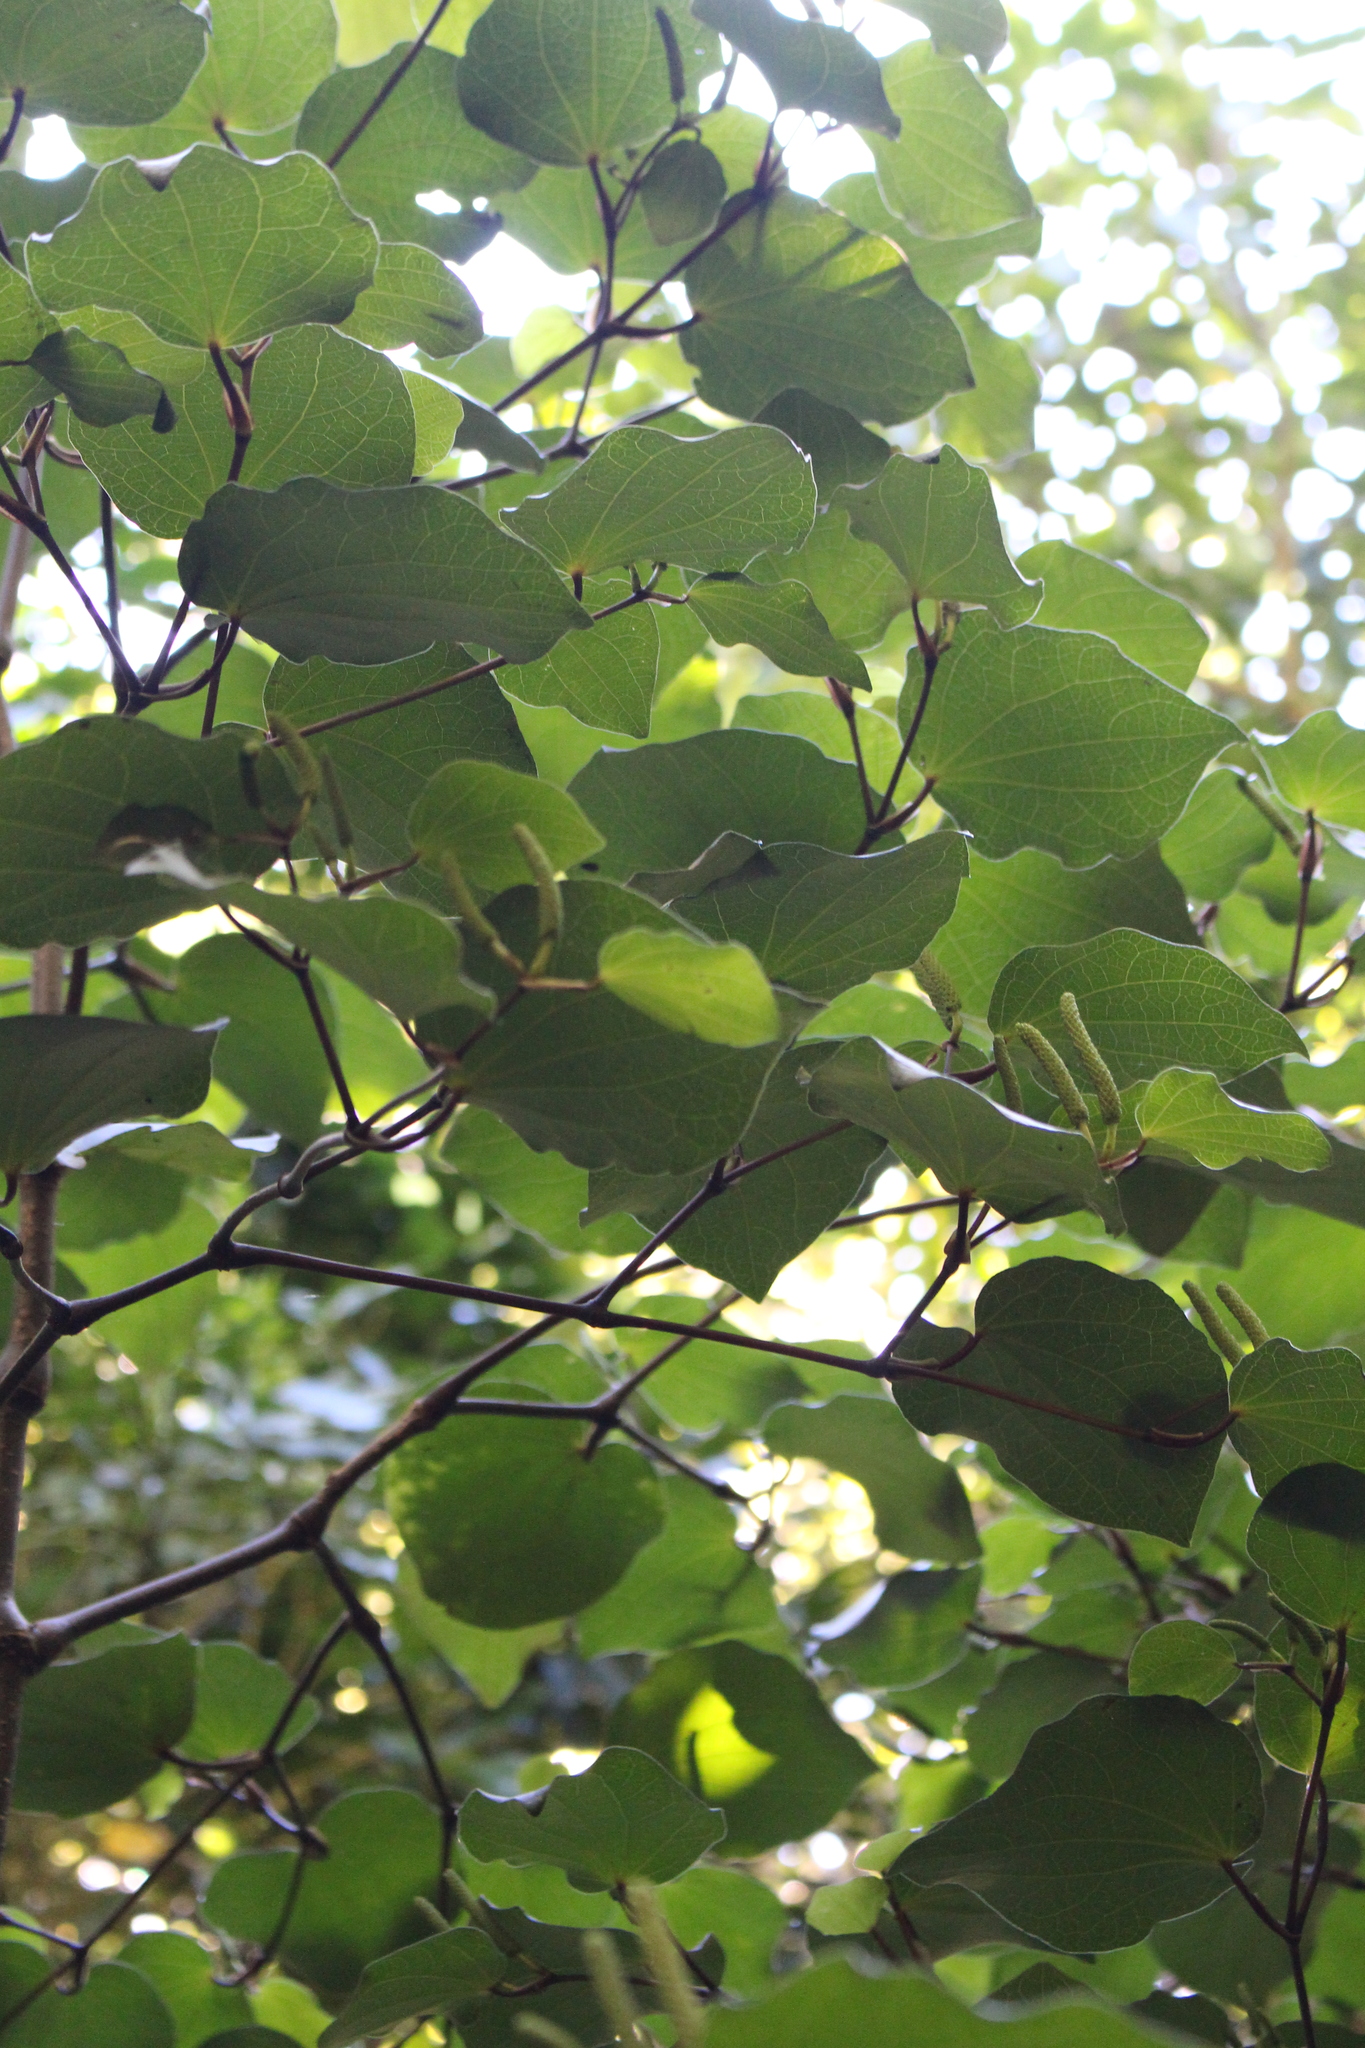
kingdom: Plantae
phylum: Tracheophyta
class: Magnoliopsida
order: Piperales
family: Piperaceae
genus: Macropiper
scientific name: Macropiper excelsum
